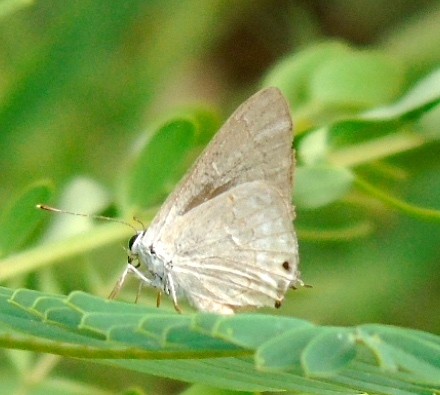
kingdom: Animalia
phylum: Arthropoda
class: Insecta
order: Lepidoptera
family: Lycaenidae
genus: Thecla
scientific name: Thecla rufofusca
